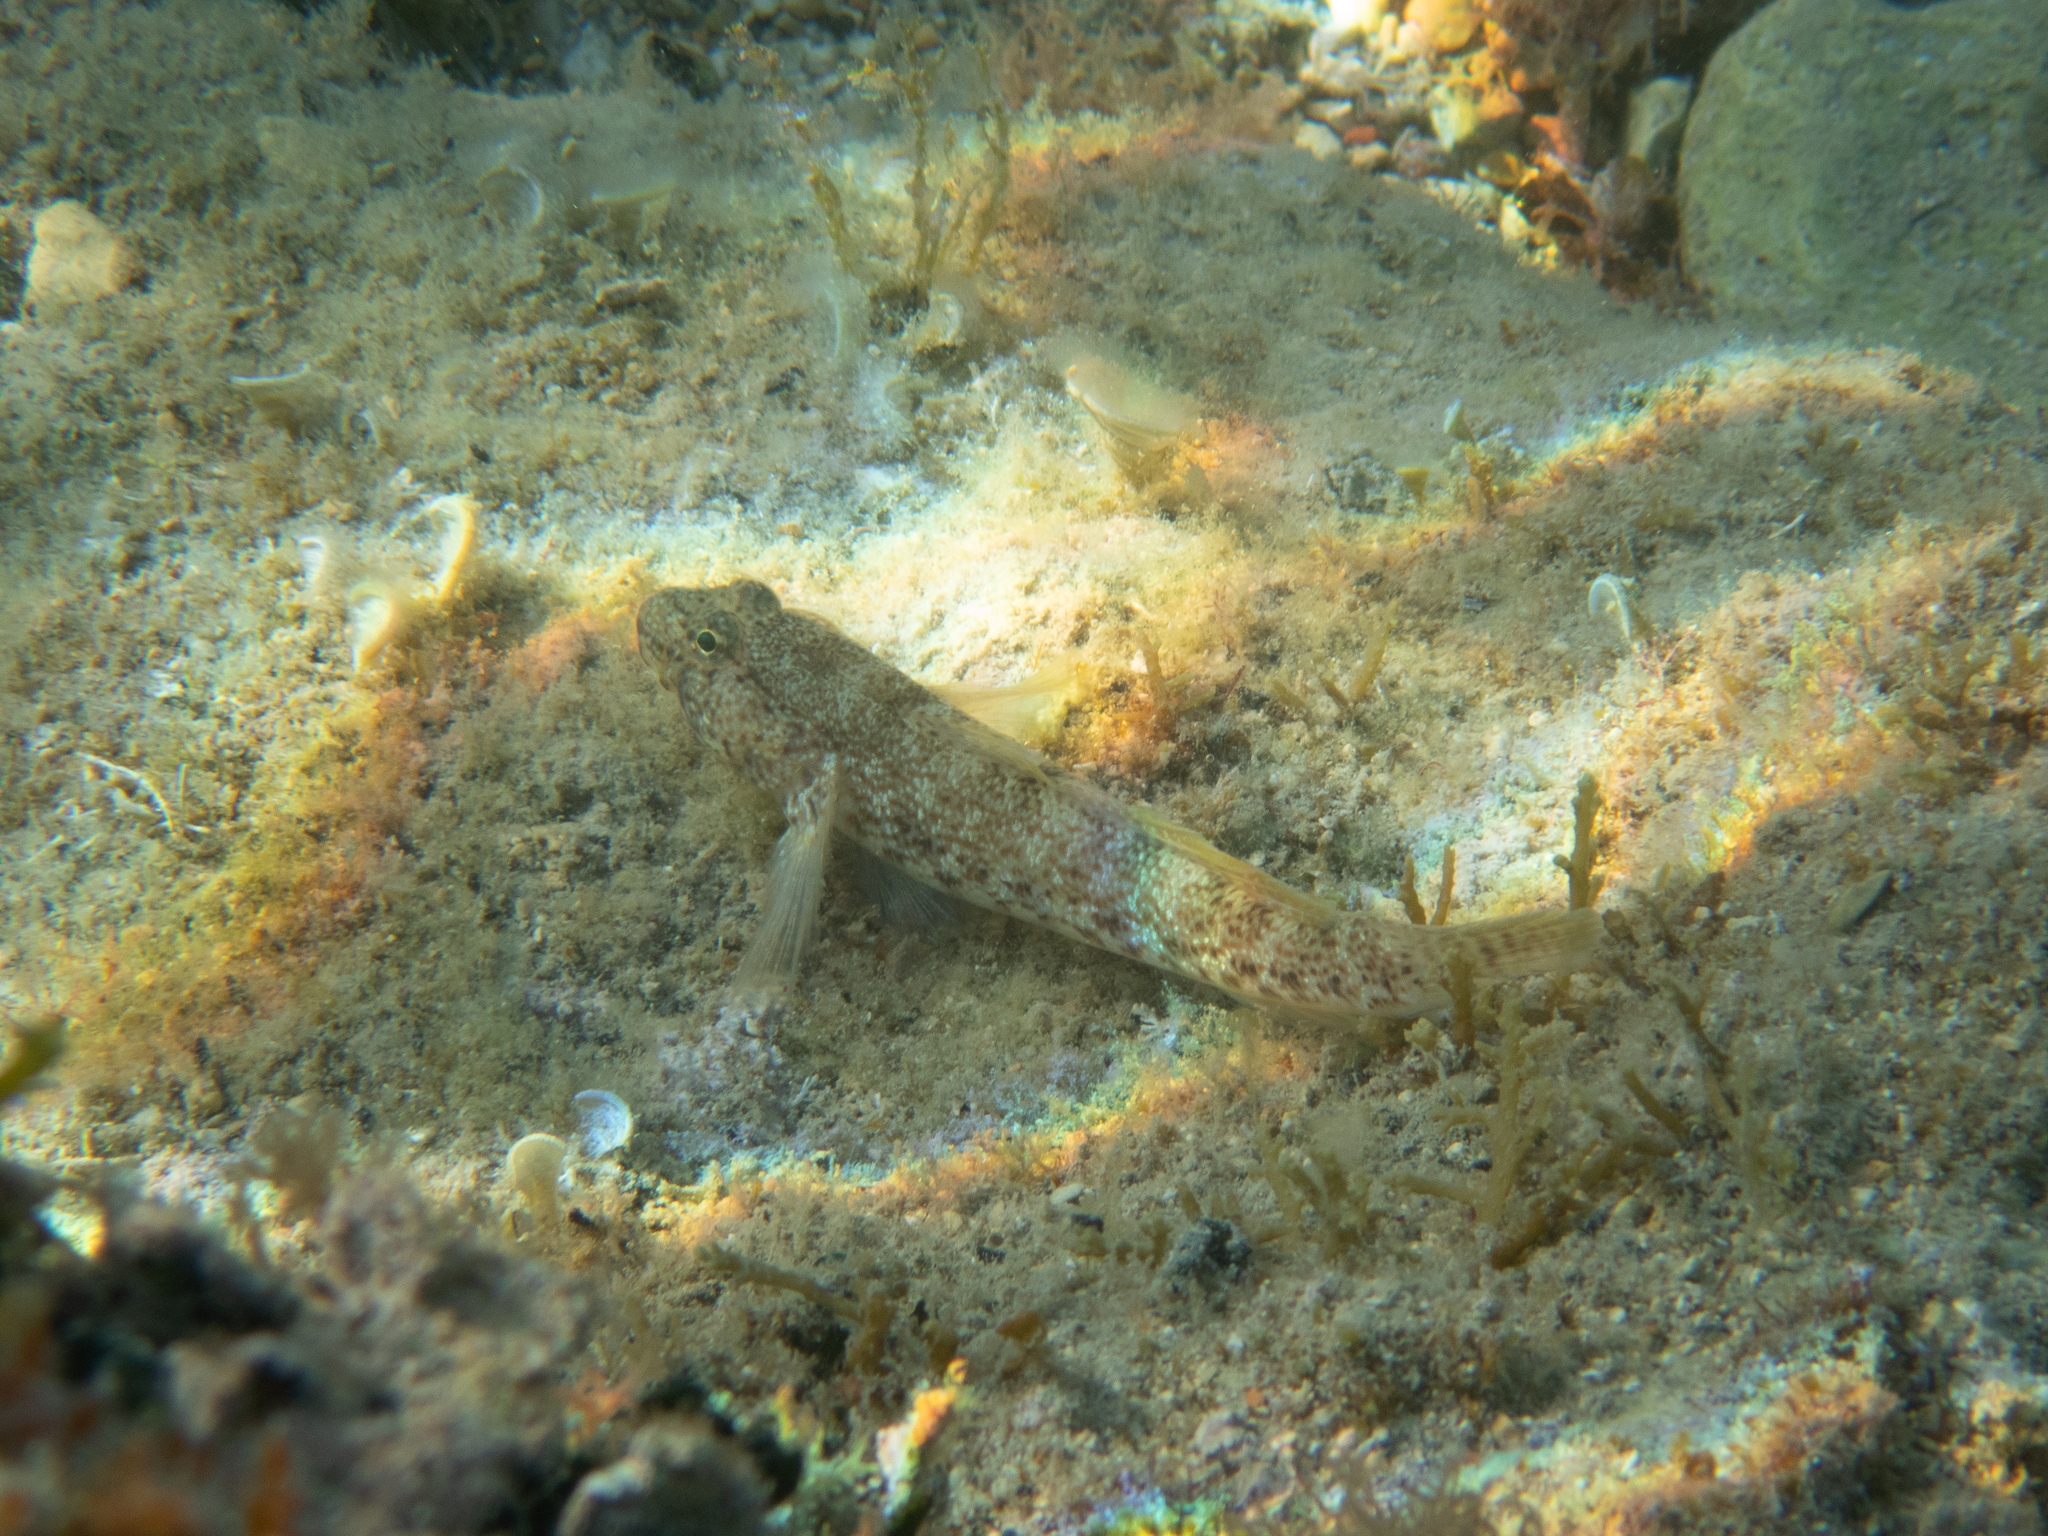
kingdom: Animalia
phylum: Chordata
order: Perciformes
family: Gobiidae
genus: Gobius
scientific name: Gobius incognitus
